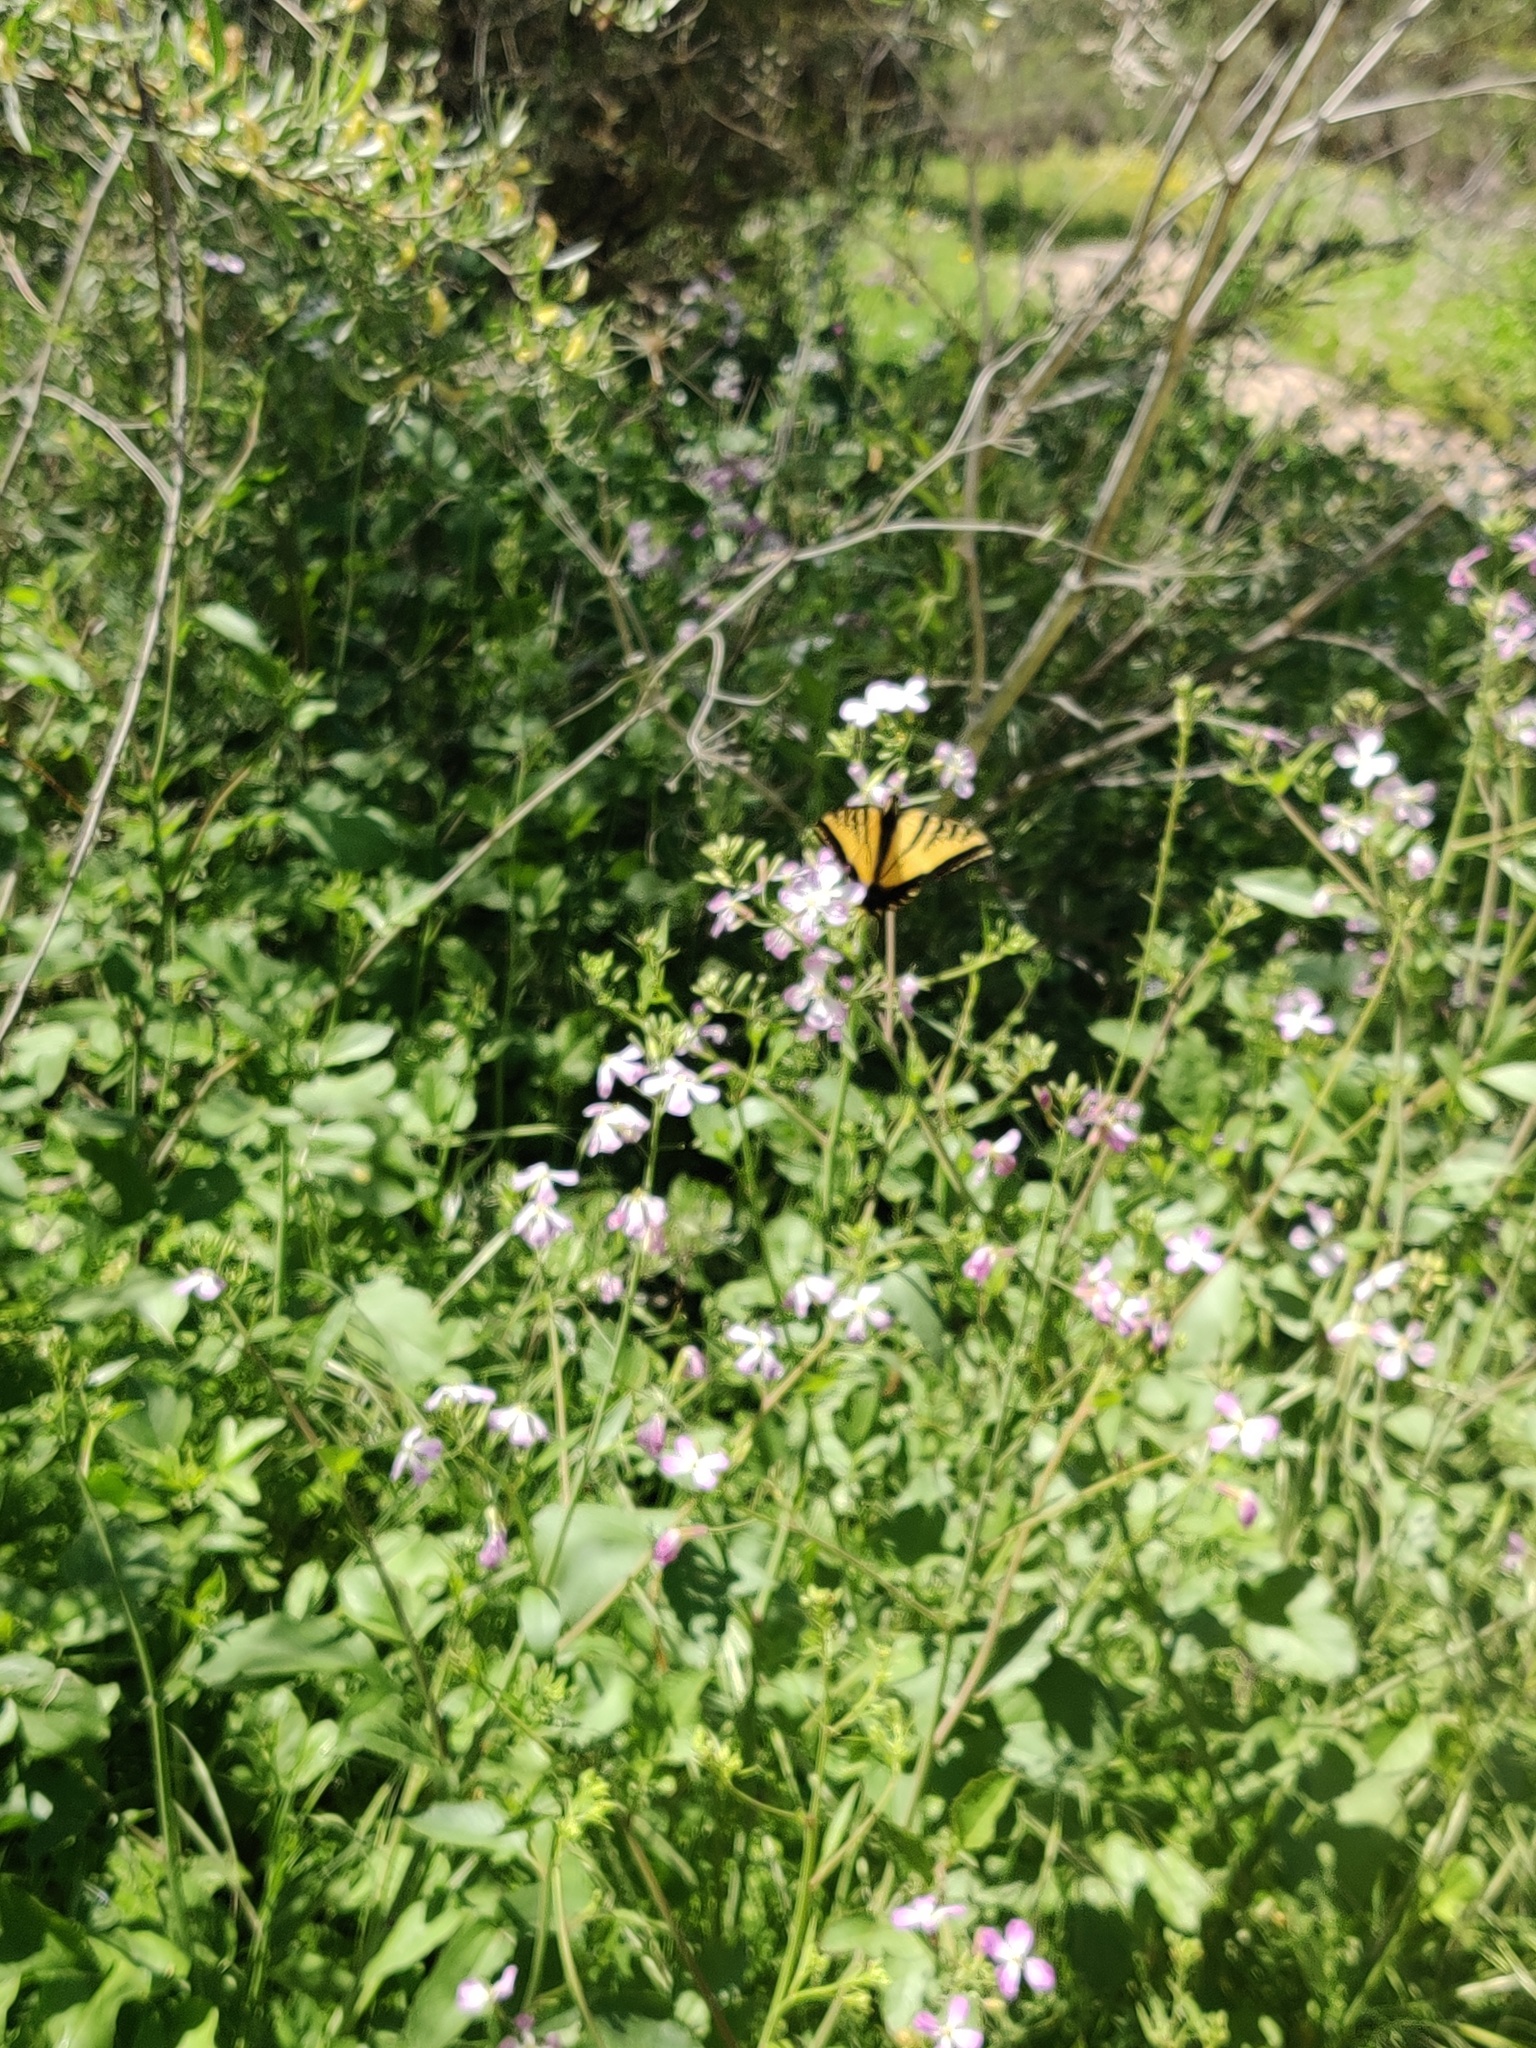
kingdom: Animalia
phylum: Arthropoda
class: Insecta
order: Lepidoptera
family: Papilionidae
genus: Papilio
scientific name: Papilio rutulus
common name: Western tiger swallowtail
